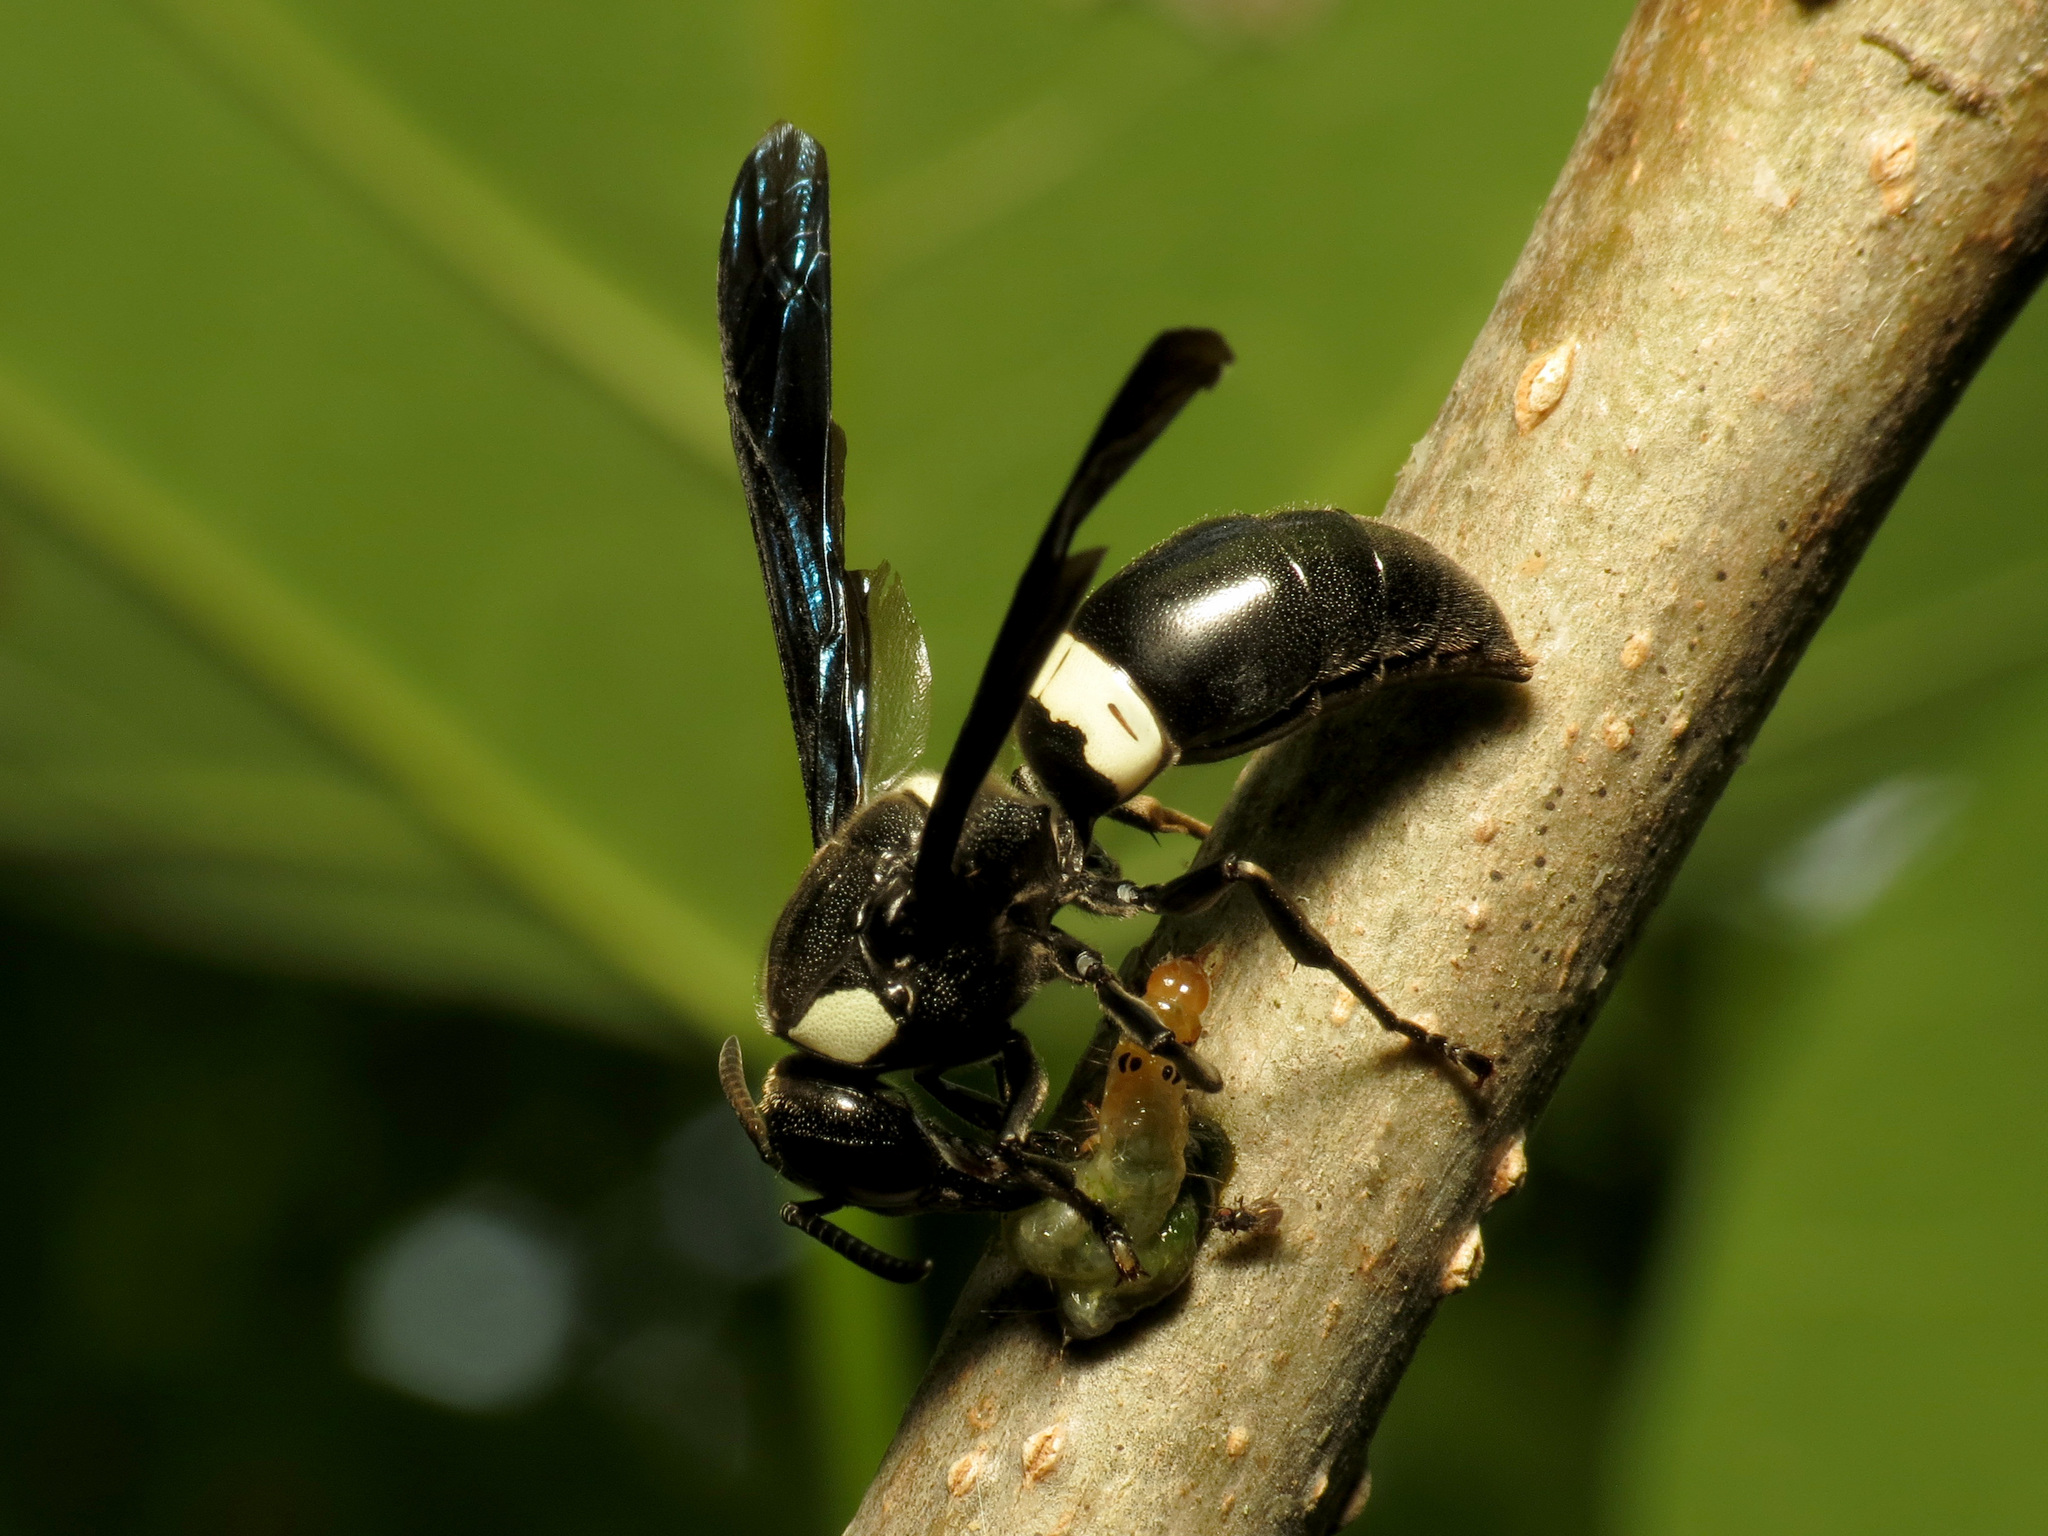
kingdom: Animalia
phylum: Arthropoda
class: Insecta
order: Hymenoptera
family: Eumenidae
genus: Monobia
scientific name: Monobia quadridens
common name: Four-toothed mason wasp
